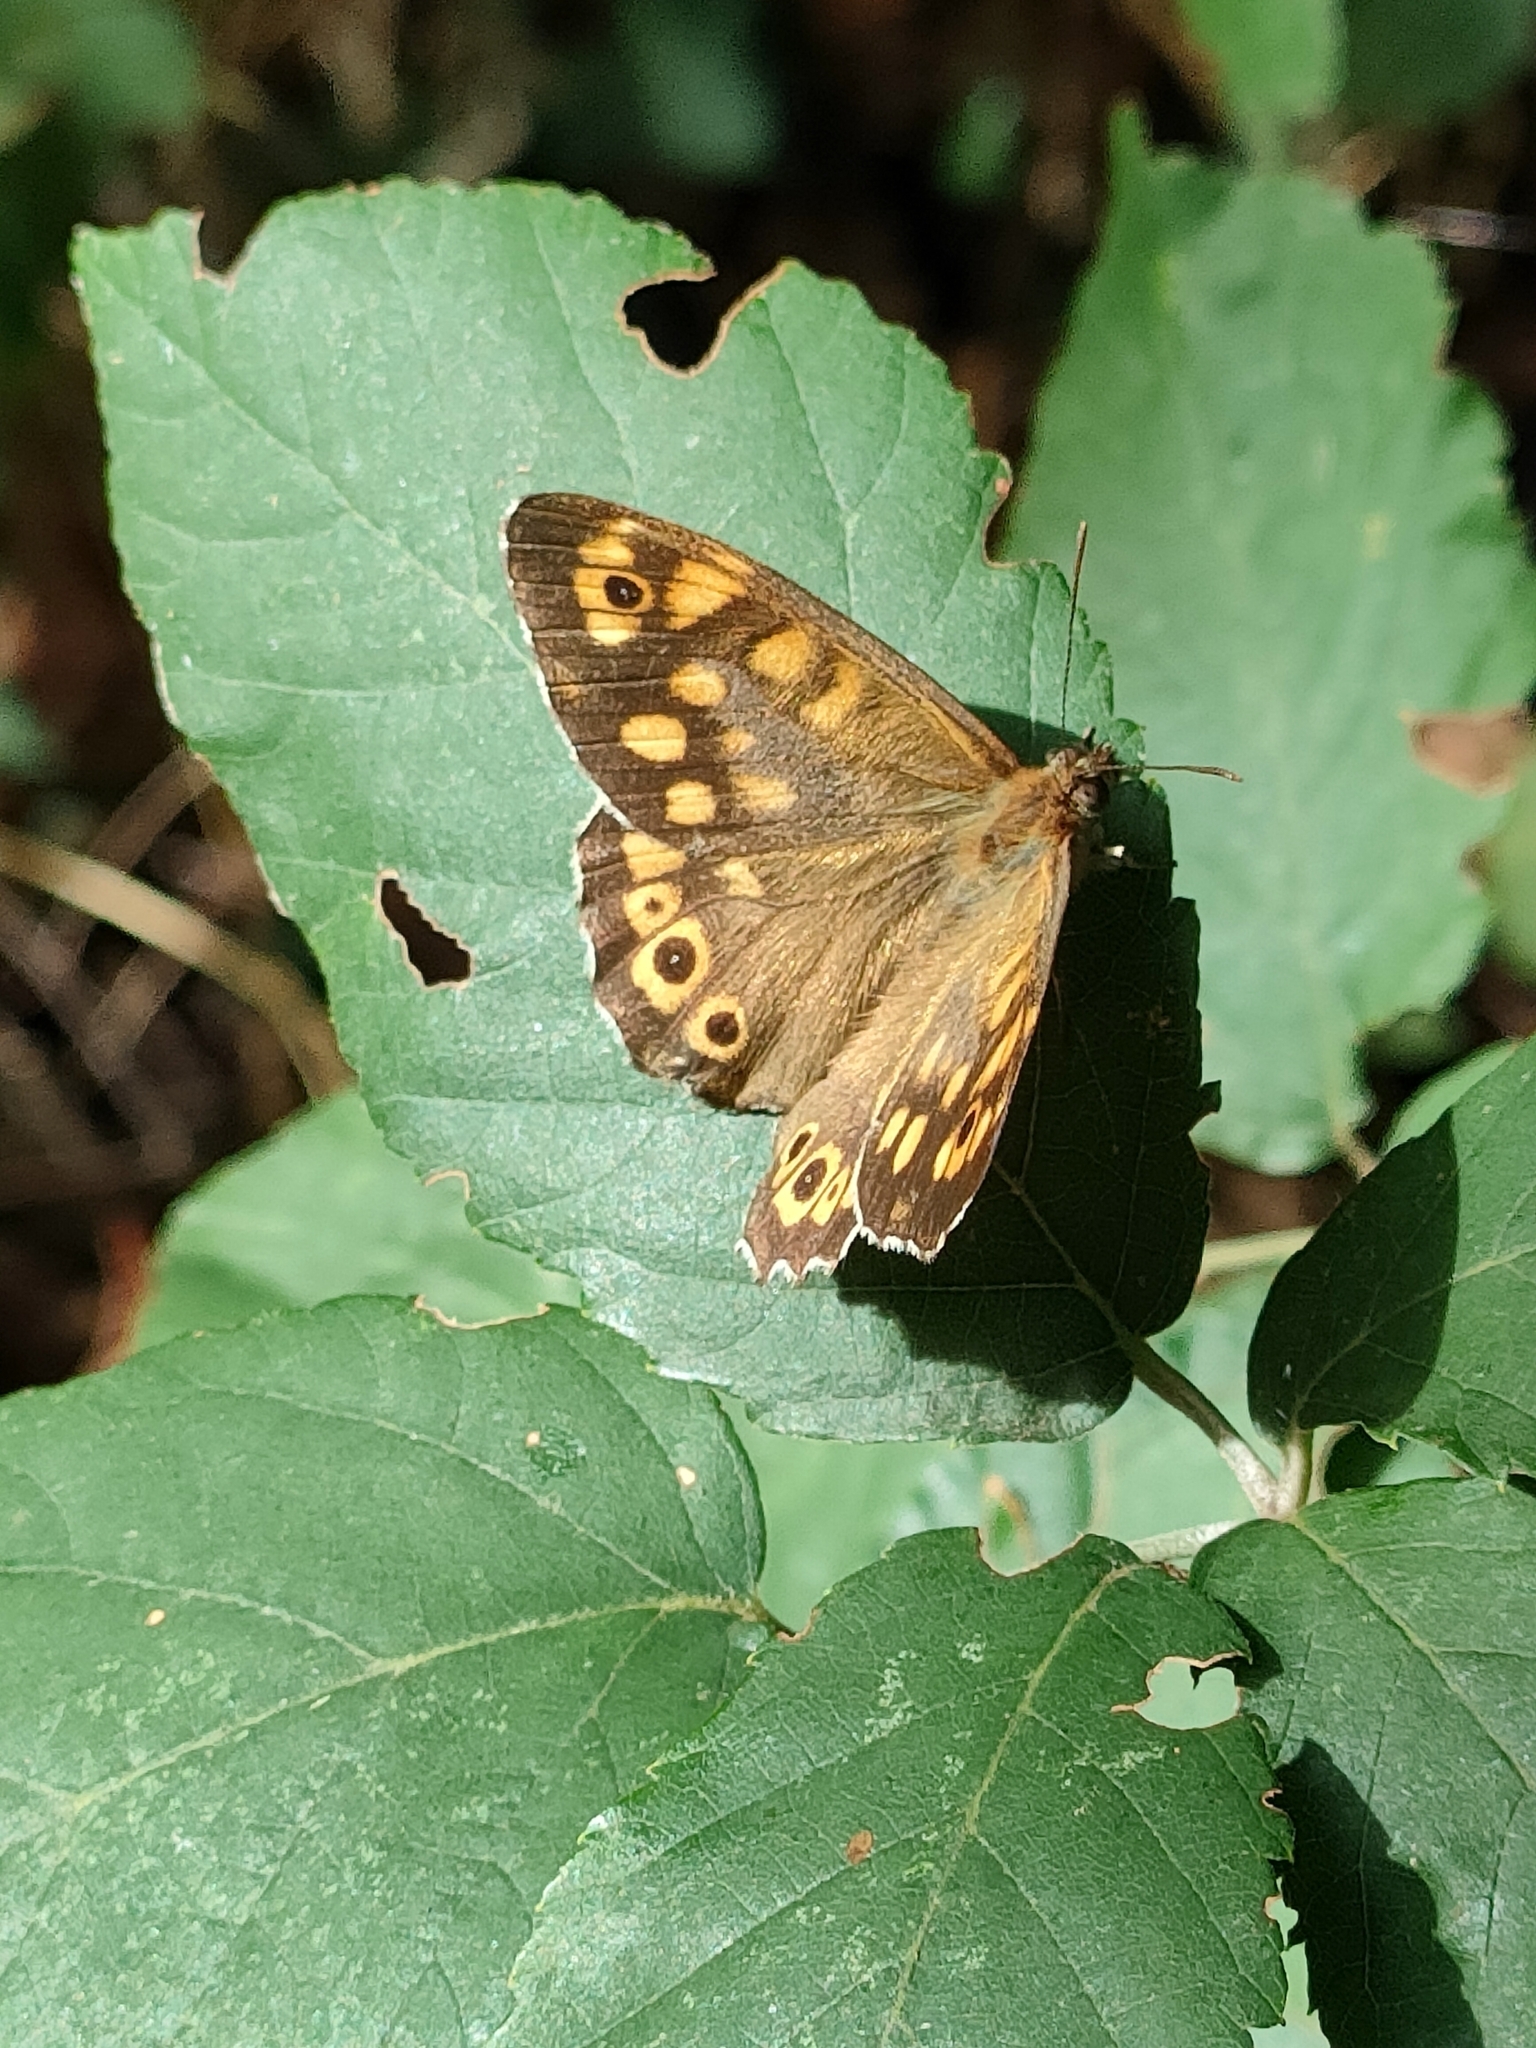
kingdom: Animalia
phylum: Arthropoda
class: Insecta
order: Lepidoptera
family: Nymphalidae
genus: Pararge
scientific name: Pararge aegeria
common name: Speckled wood
